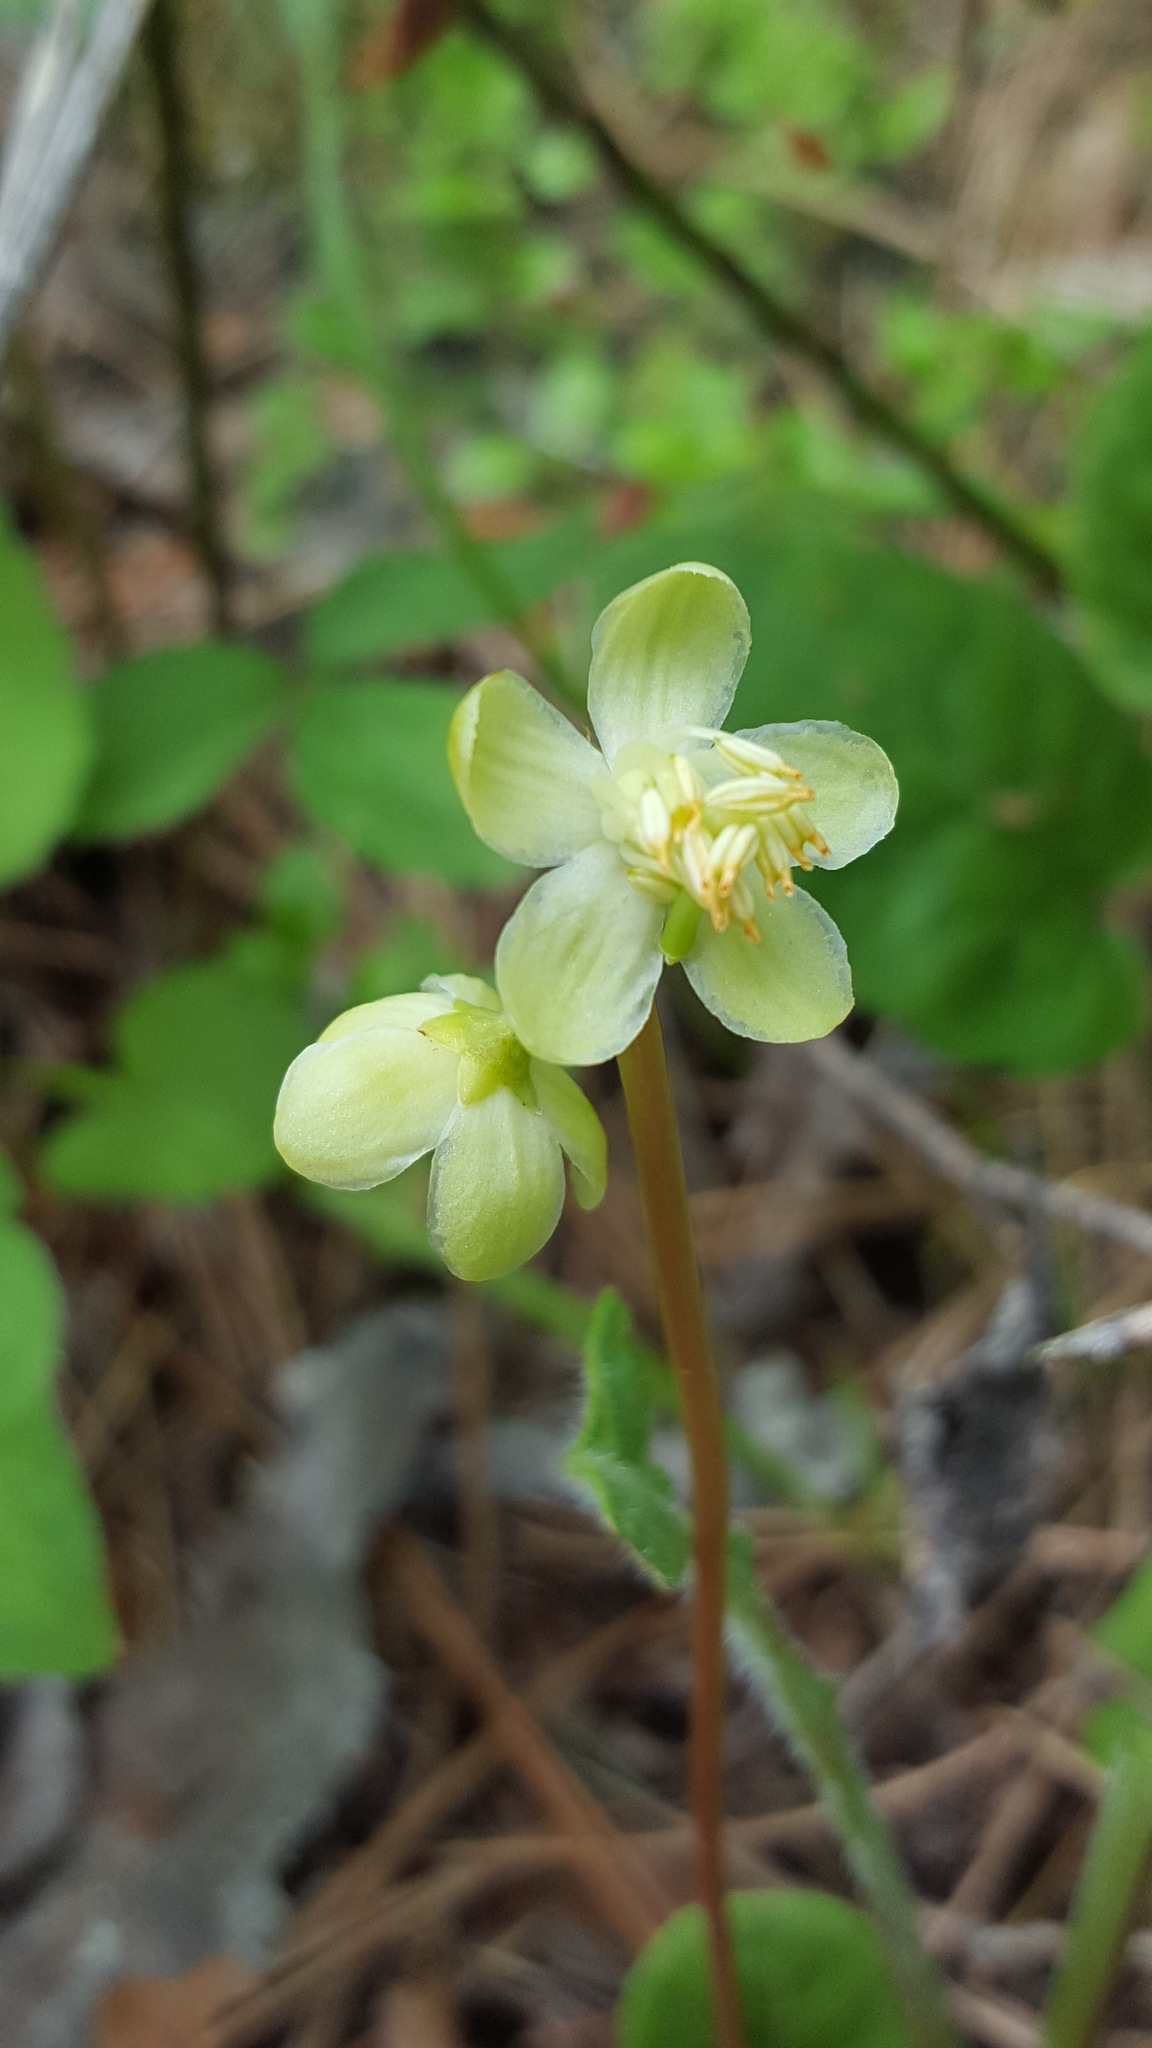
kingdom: Plantae
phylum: Tracheophyta
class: Magnoliopsida
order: Ericales
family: Ericaceae
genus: Pyrola
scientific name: Pyrola chlorantha
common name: Green wintergreen
